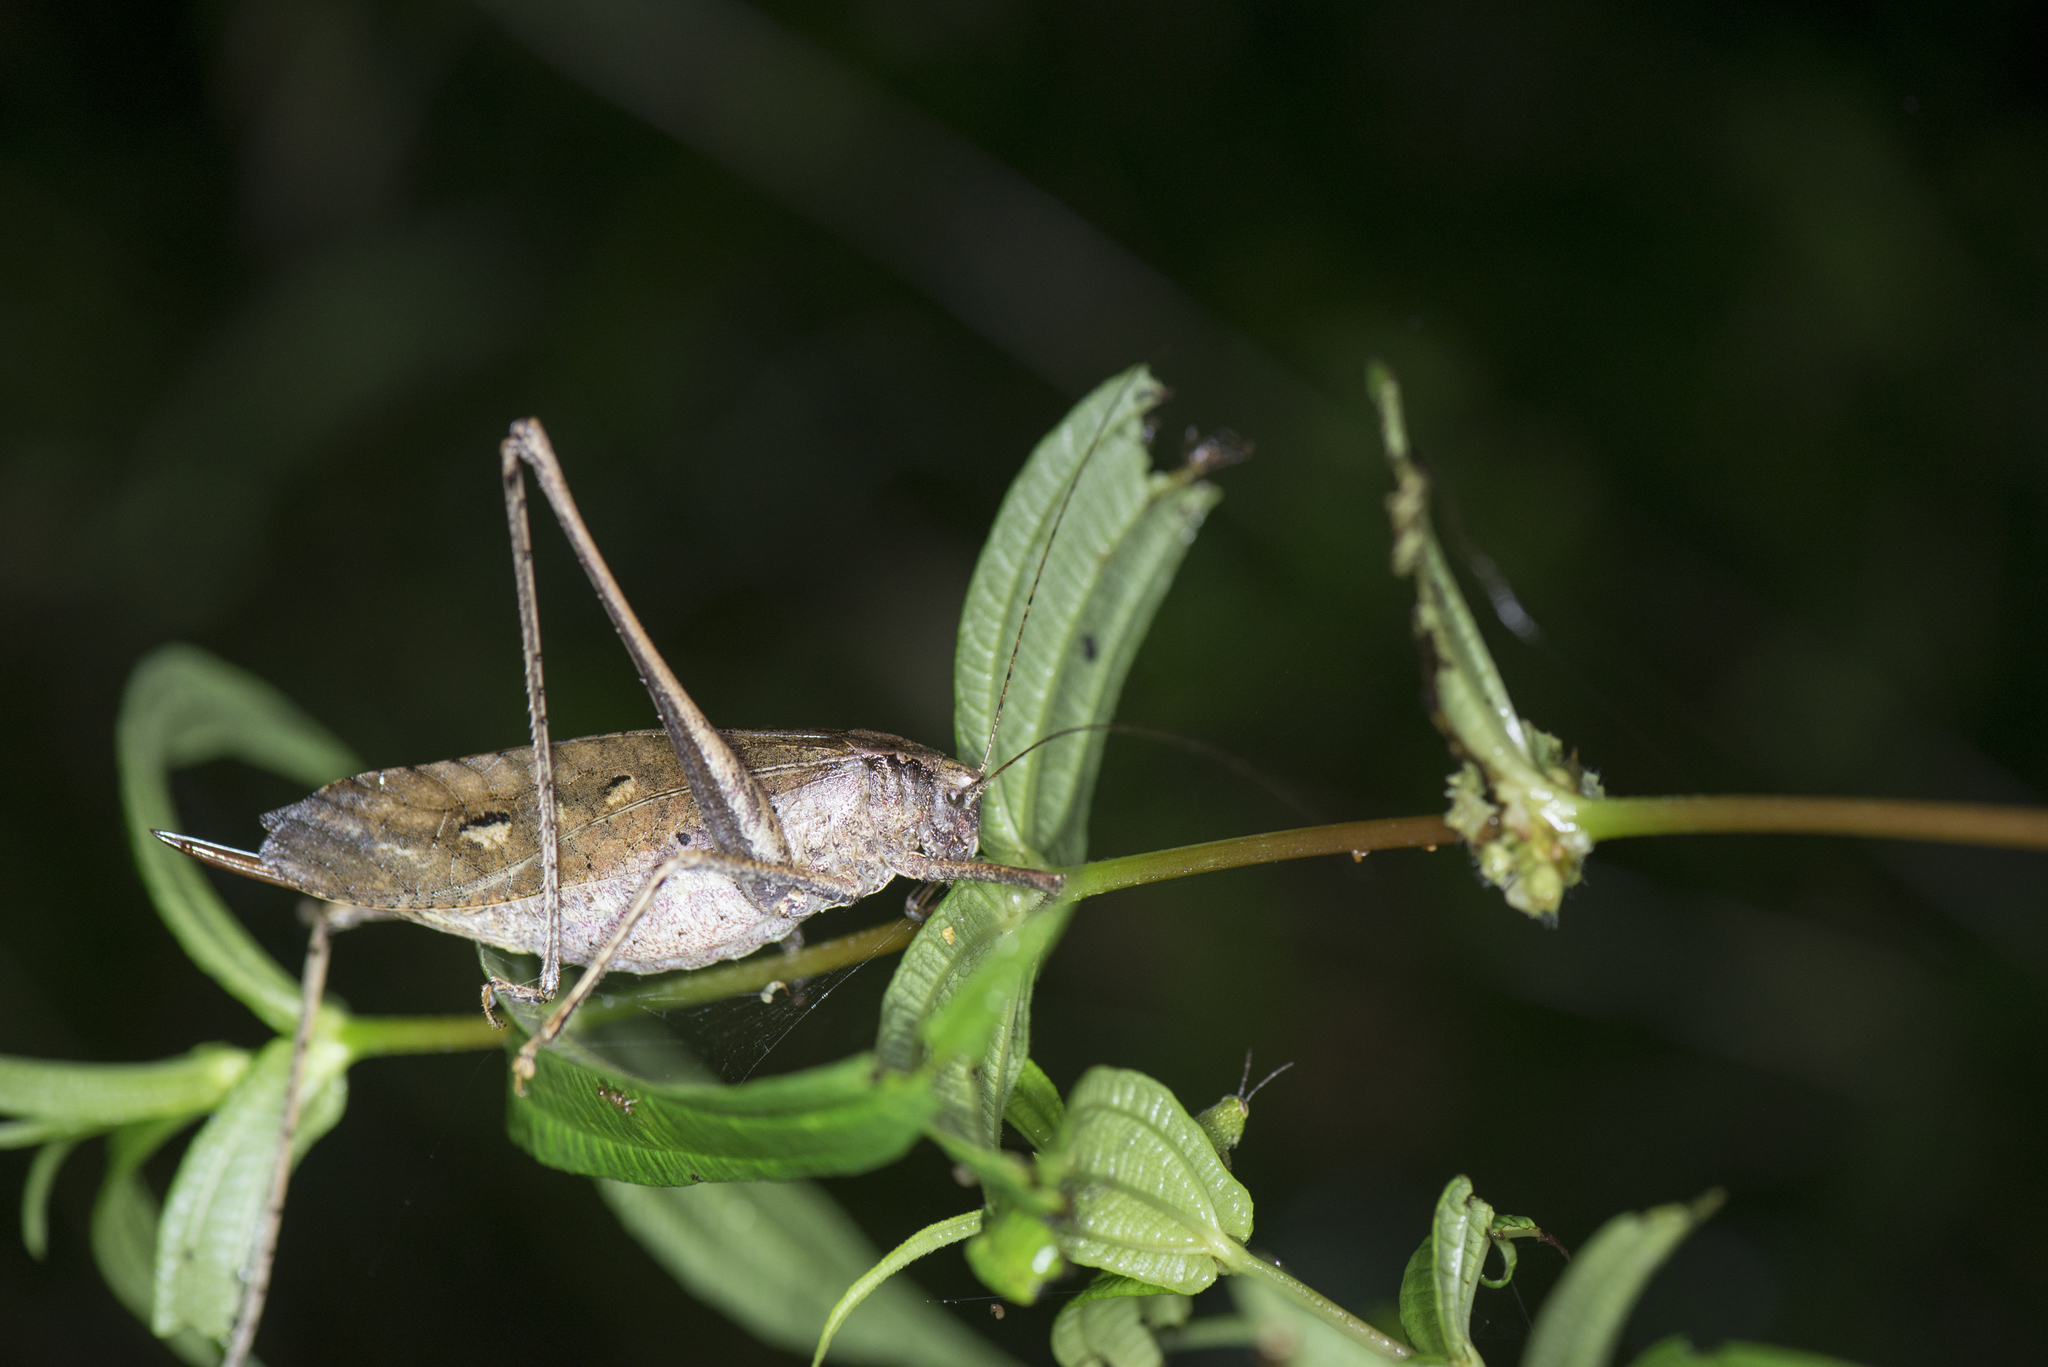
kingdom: Animalia
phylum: Arthropoda
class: Insecta
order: Orthoptera
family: Tettigoniidae
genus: Mecopoda
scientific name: Mecopoda elongata
